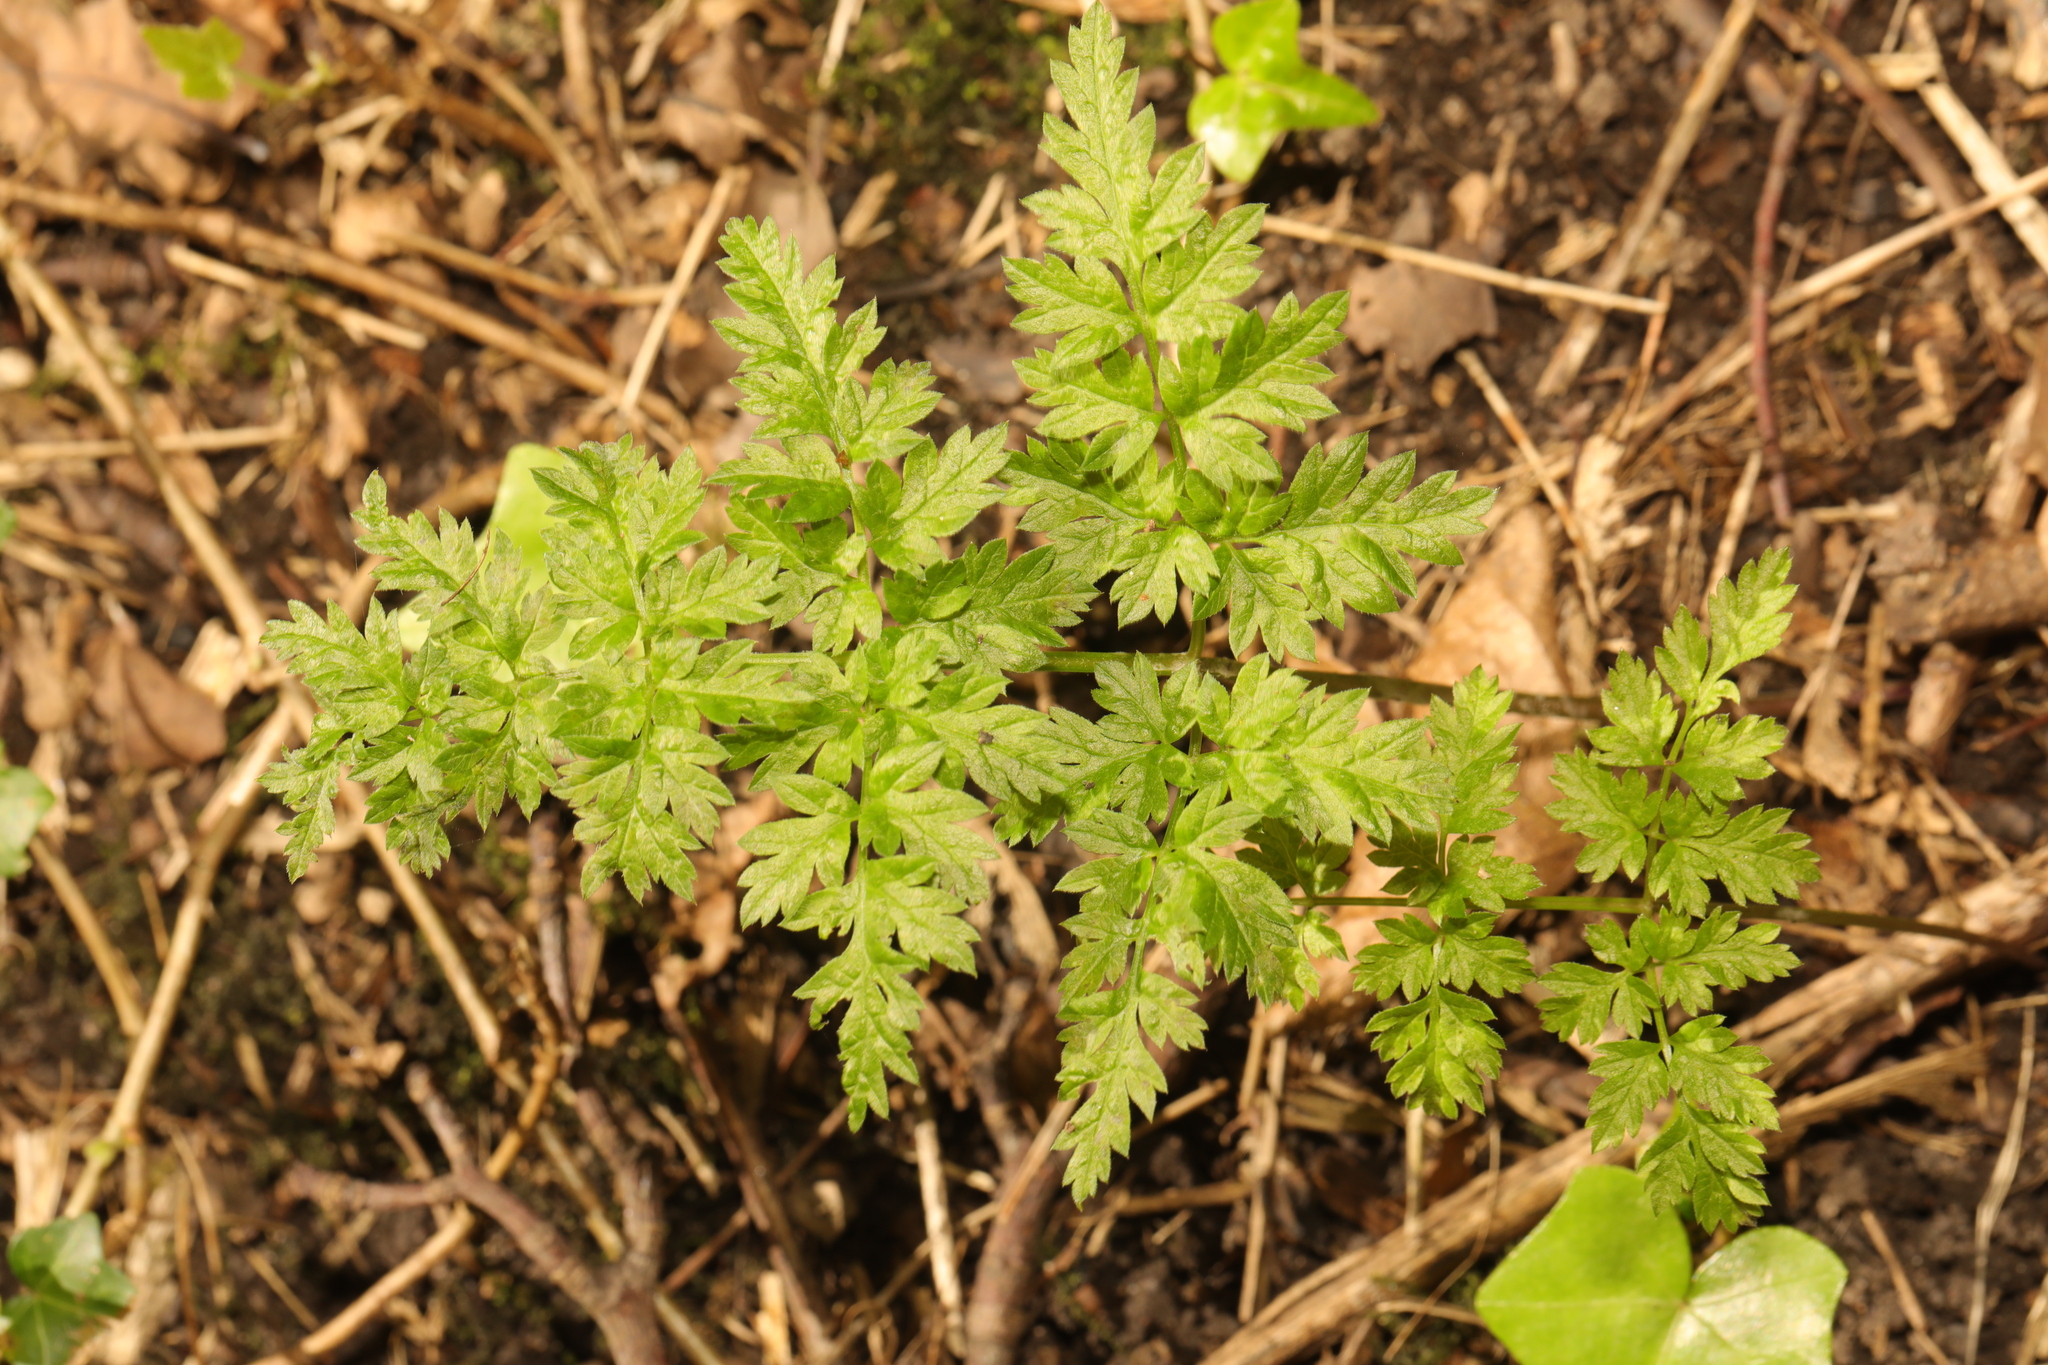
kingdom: Plantae
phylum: Tracheophyta
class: Magnoliopsida
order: Apiales
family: Apiaceae
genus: Anthriscus
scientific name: Anthriscus sylvestris
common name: Cow parsley
